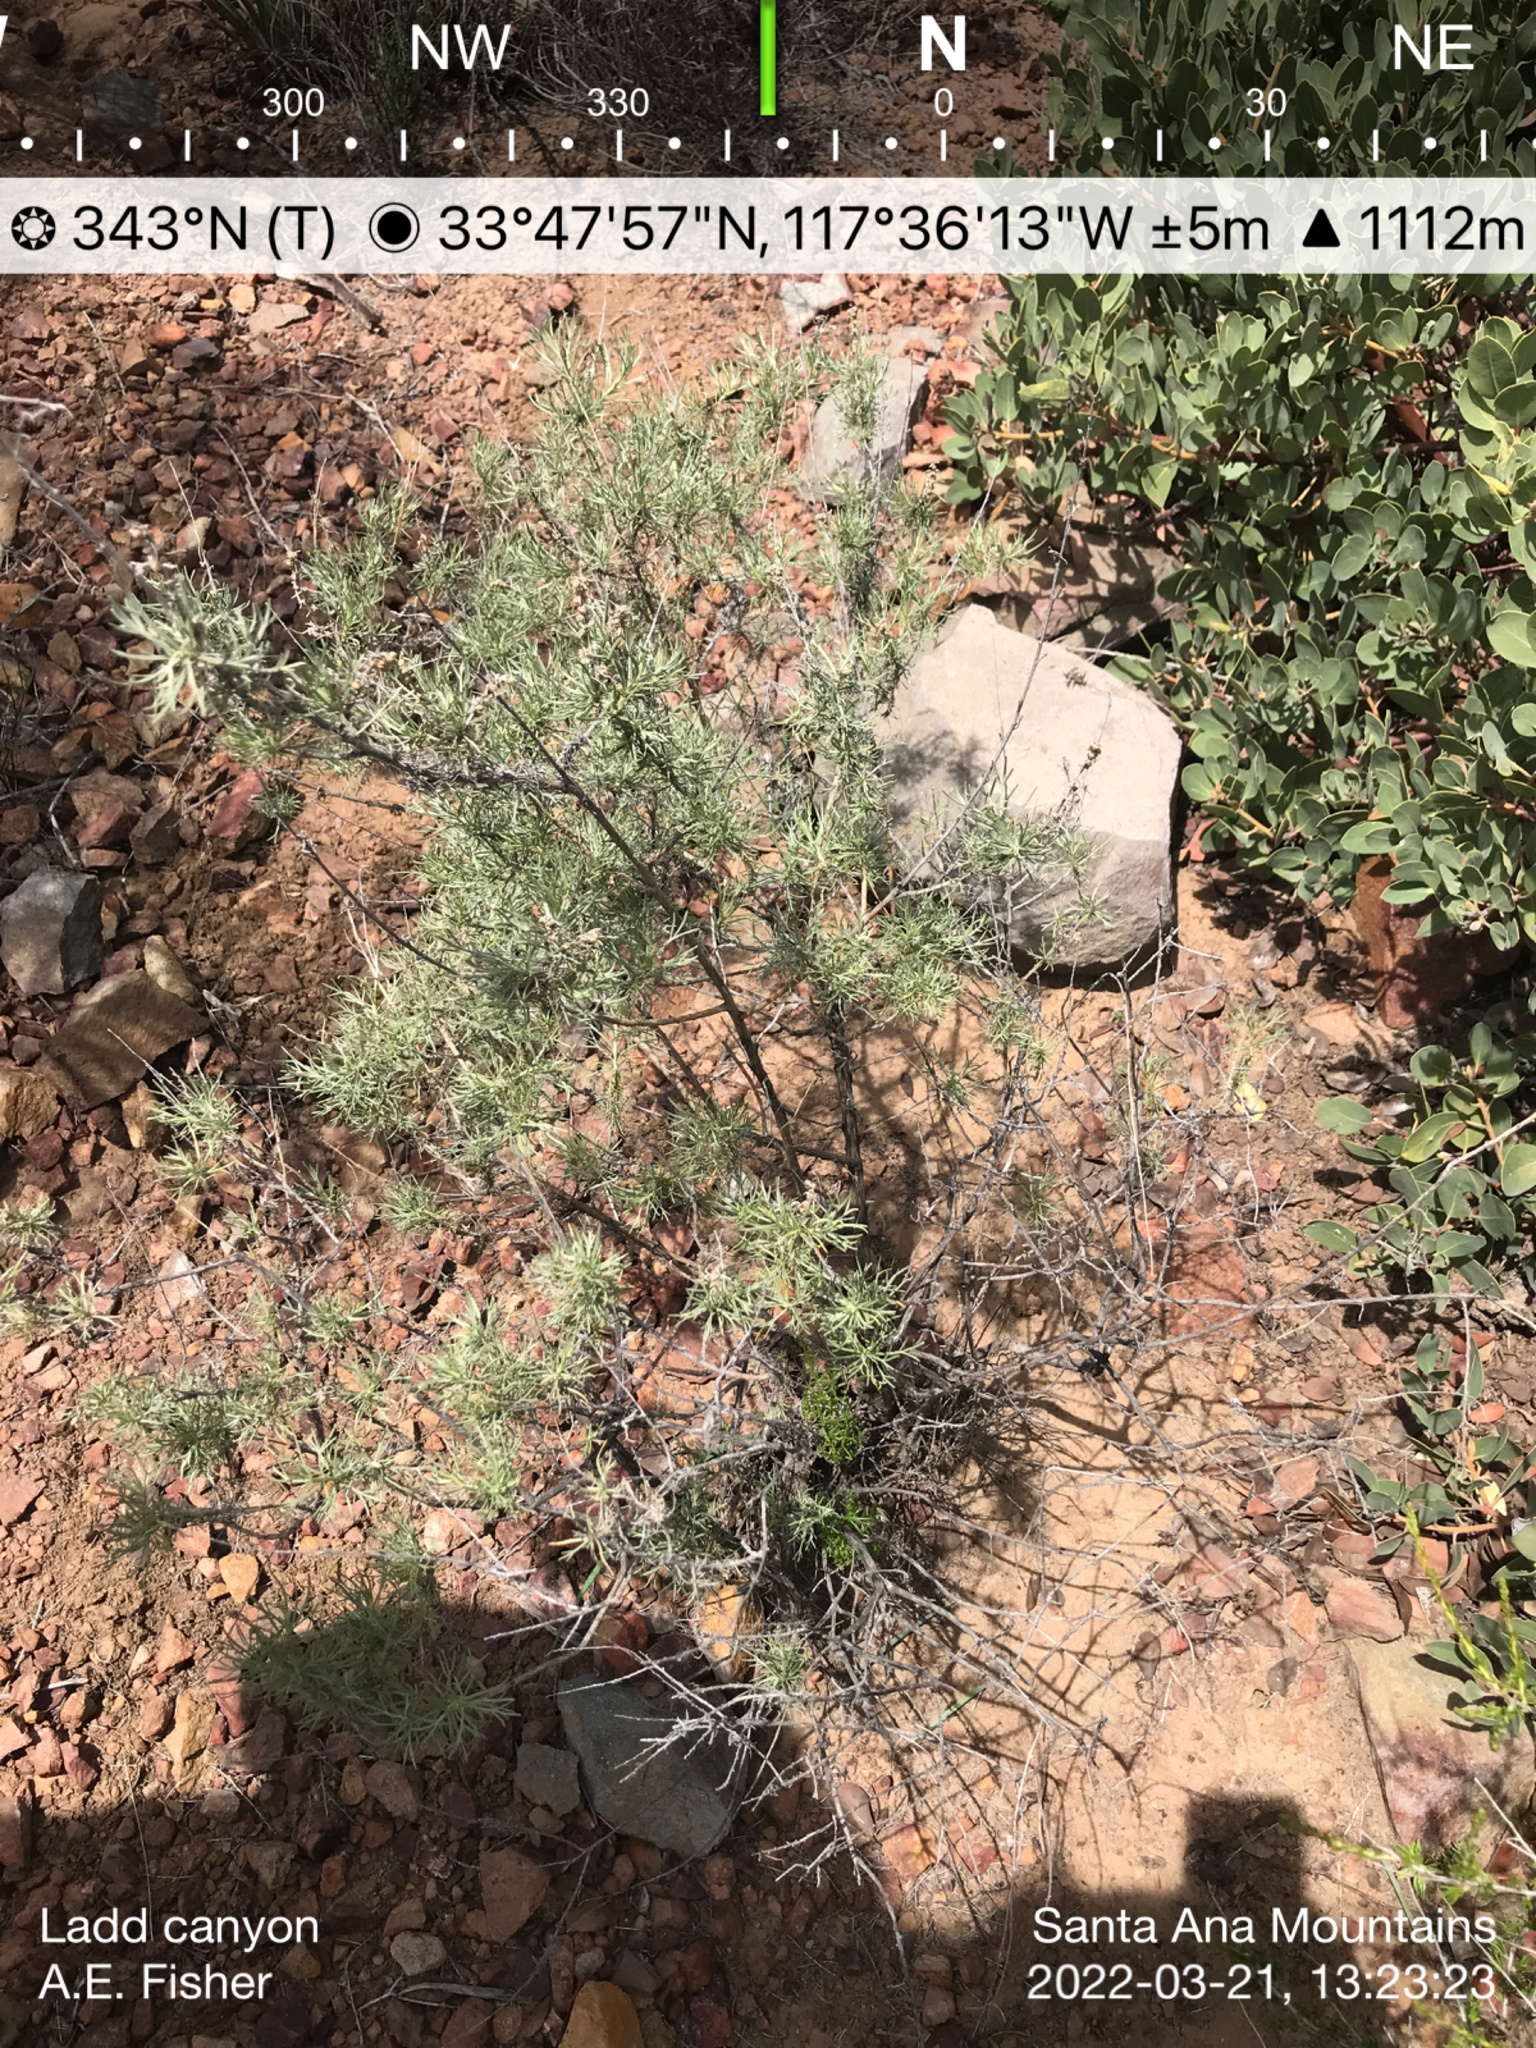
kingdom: Plantae
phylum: Tracheophyta
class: Magnoliopsida
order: Asterales
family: Asteraceae
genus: Artemisia
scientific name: Artemisia californica
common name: California sagebrush
